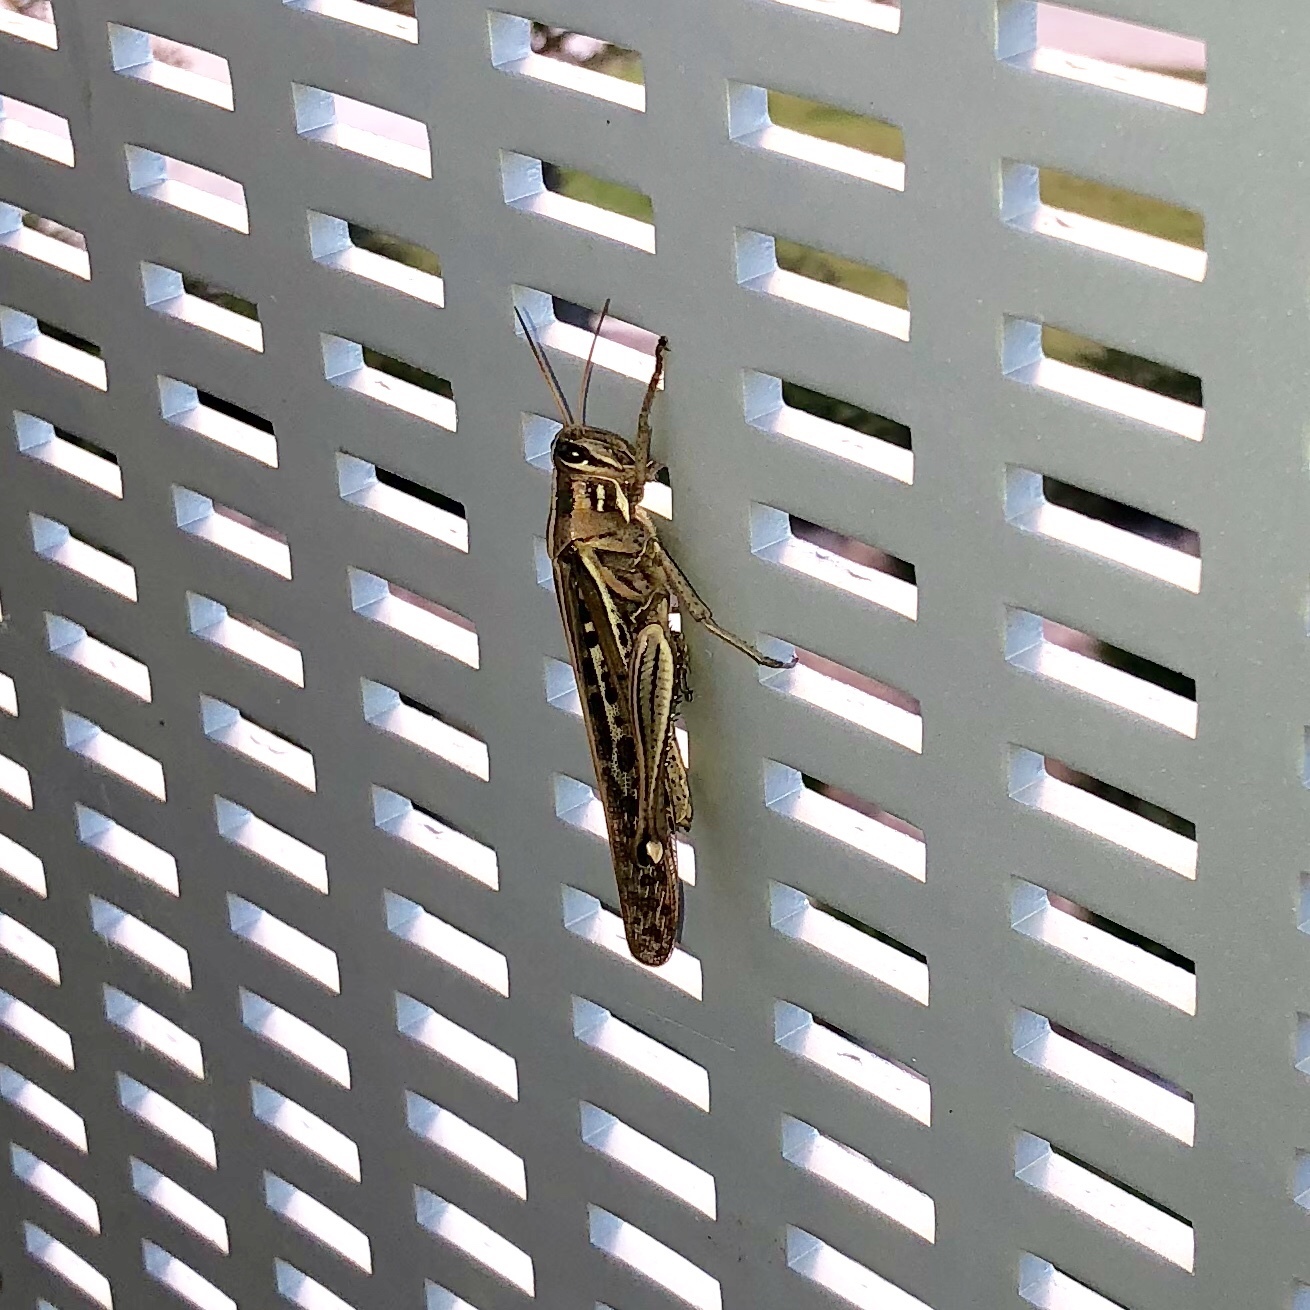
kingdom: Animalia
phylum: Arthropoda
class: Insecta
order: Orthoptera
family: Acrididae
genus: Schistocerca
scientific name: Schistocerca americana
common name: American bird locust
